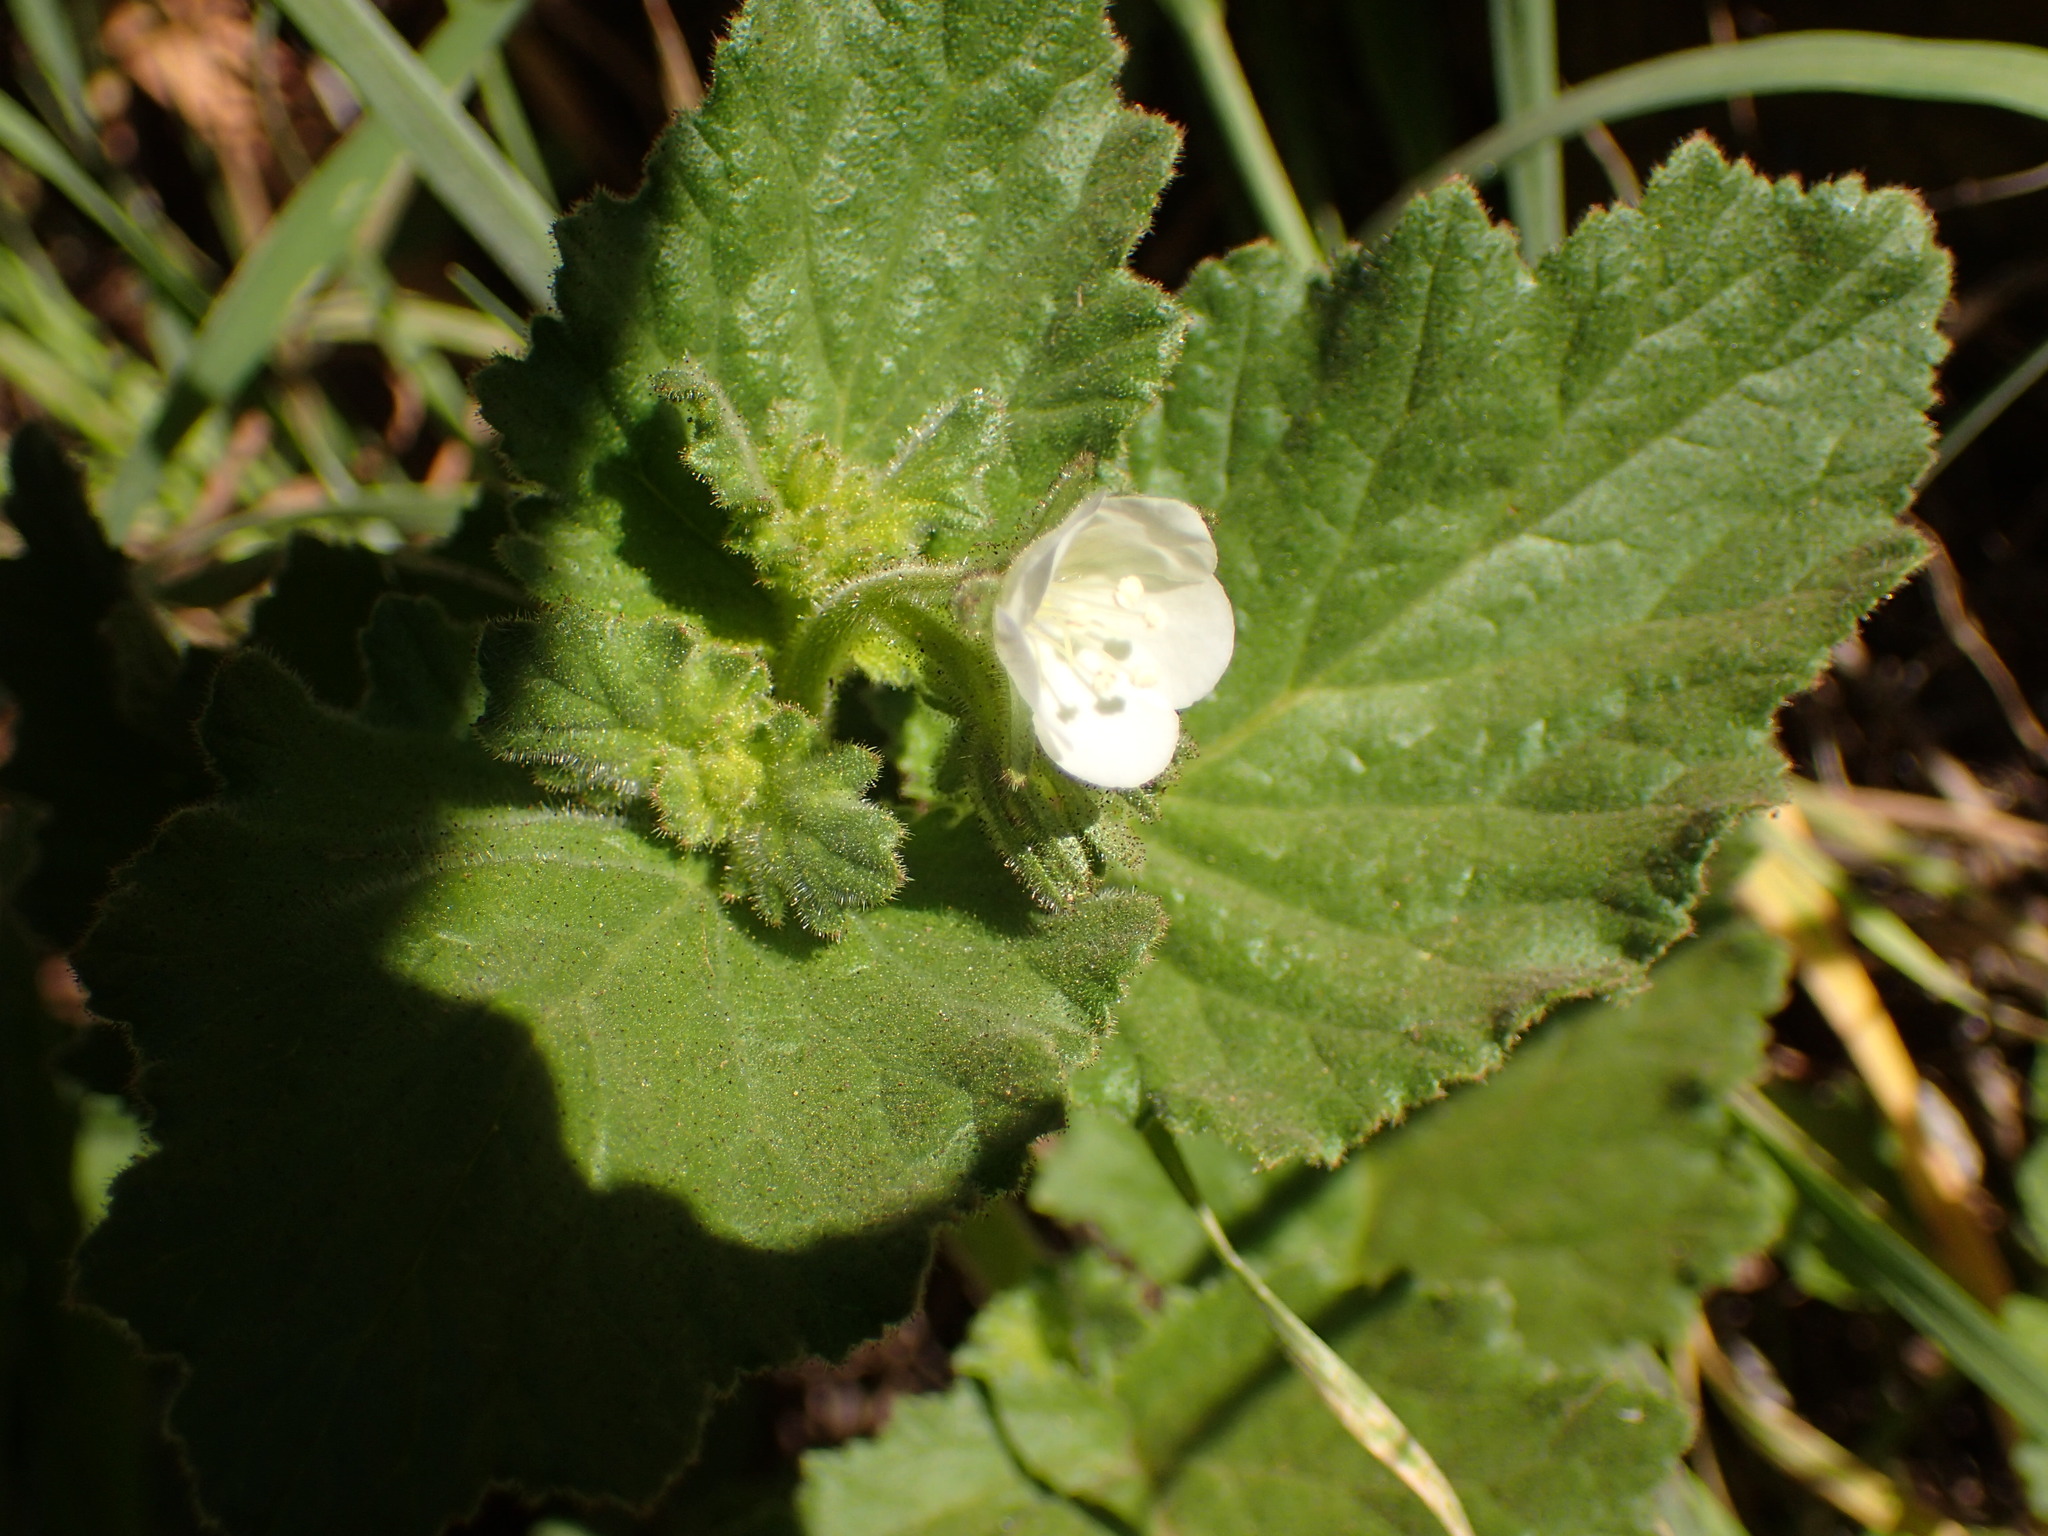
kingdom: Plantae
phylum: Tracheophyta
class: Magnoliopsida
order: Boraginales
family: Hydrophyllaceae
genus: Phacelia
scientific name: Phacelia viscida
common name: Sticky phacelia
